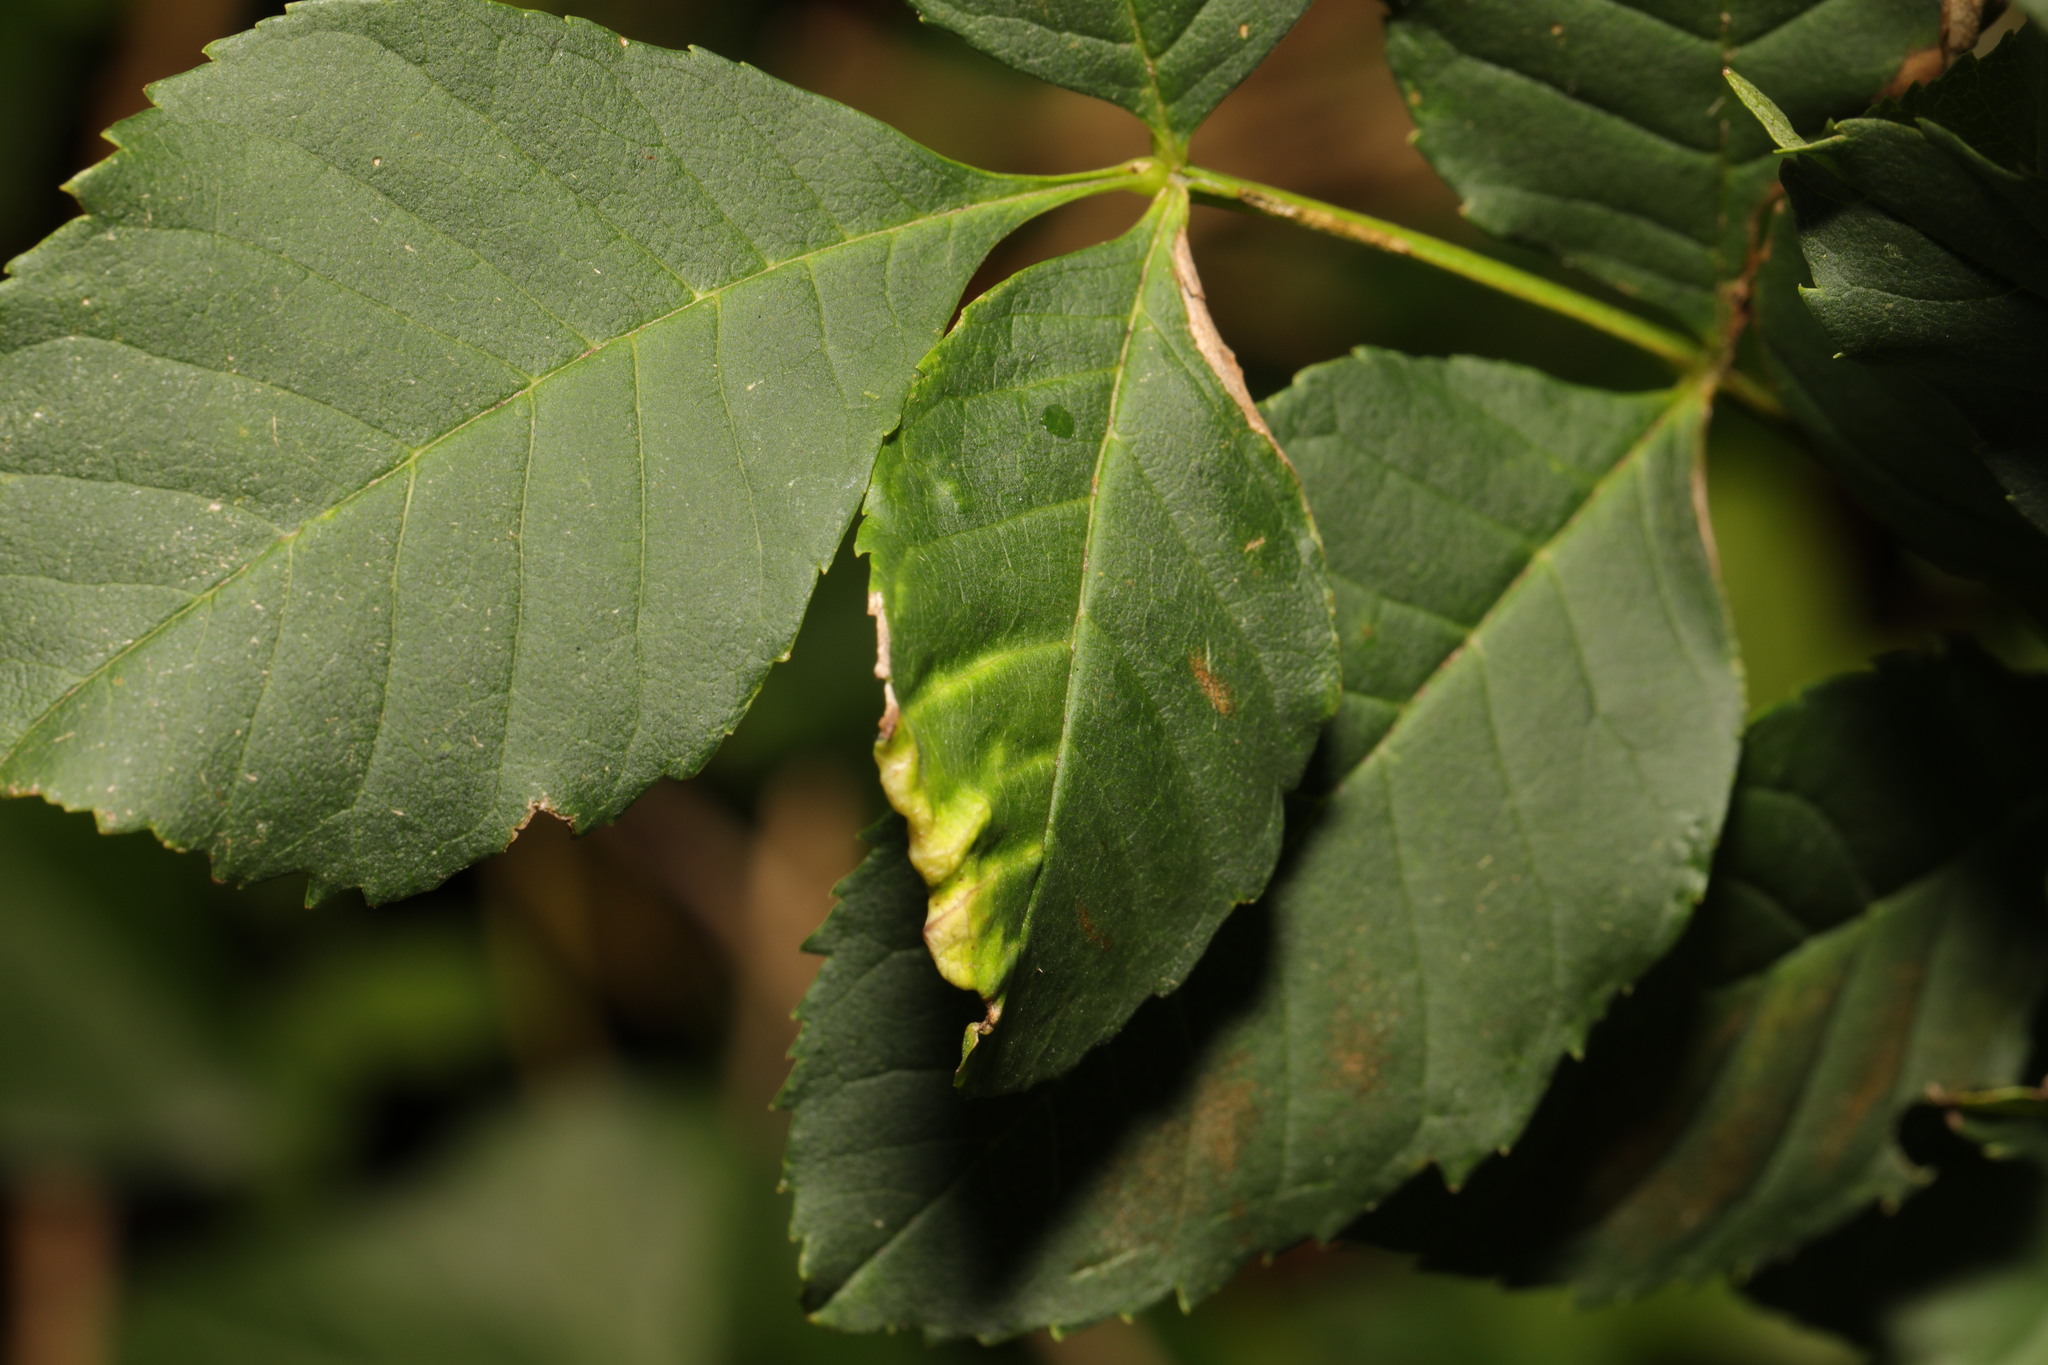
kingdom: Plantae
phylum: Tracheophyta
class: Magnoliopsida
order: Lamiales
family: Oleaceae
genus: Fraxinus
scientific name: Fraxinus excelsior
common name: European ash
